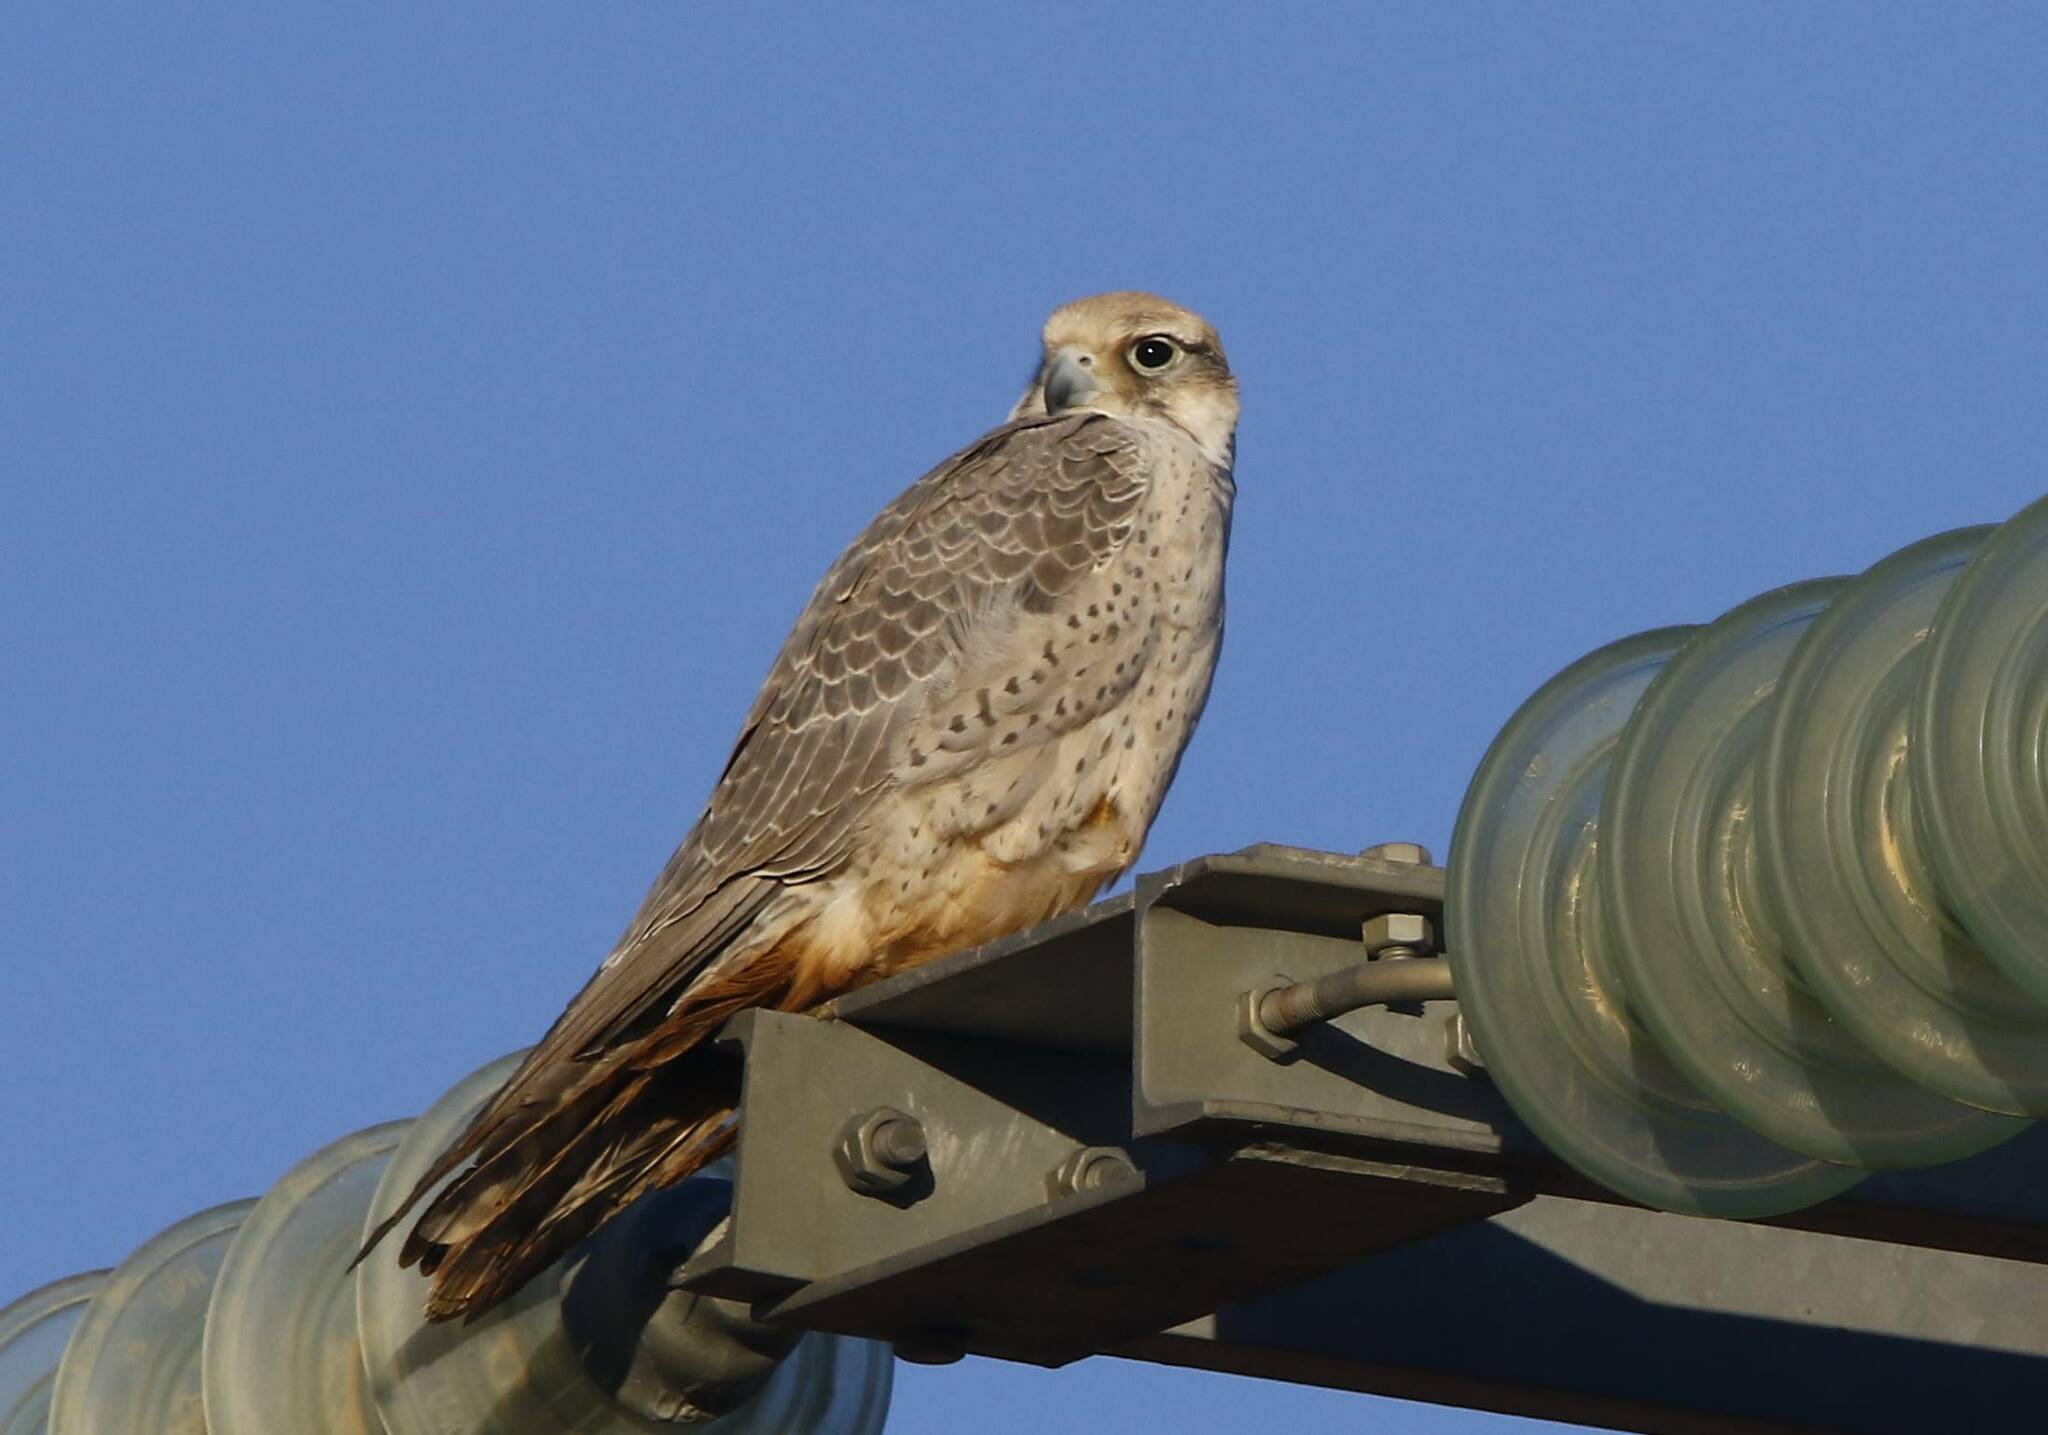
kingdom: Animalia
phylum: Chordata
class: Aves
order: Falconiformes
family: Falconidae
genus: Falco
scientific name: Falco biarmicus
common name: Lanner falcon
